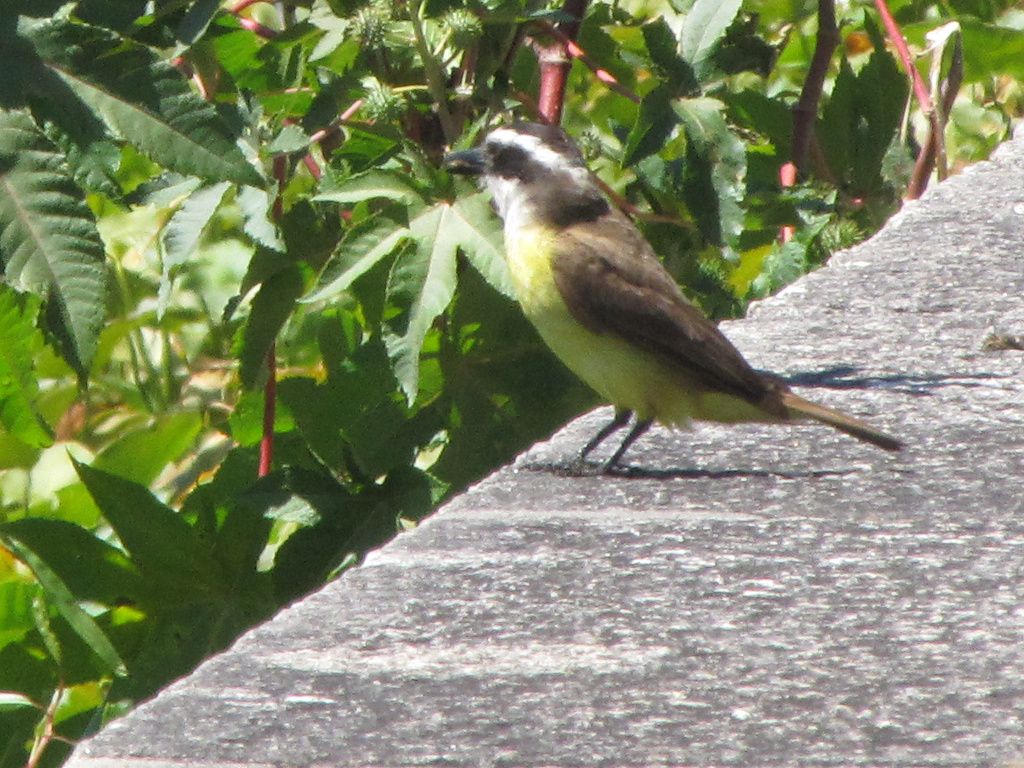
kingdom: Animalia
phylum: Chordata
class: Aves
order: Passeriformes
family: Tyrannidae
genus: Pitangus
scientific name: Pitangus sulphuratus
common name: Great kiskadee
